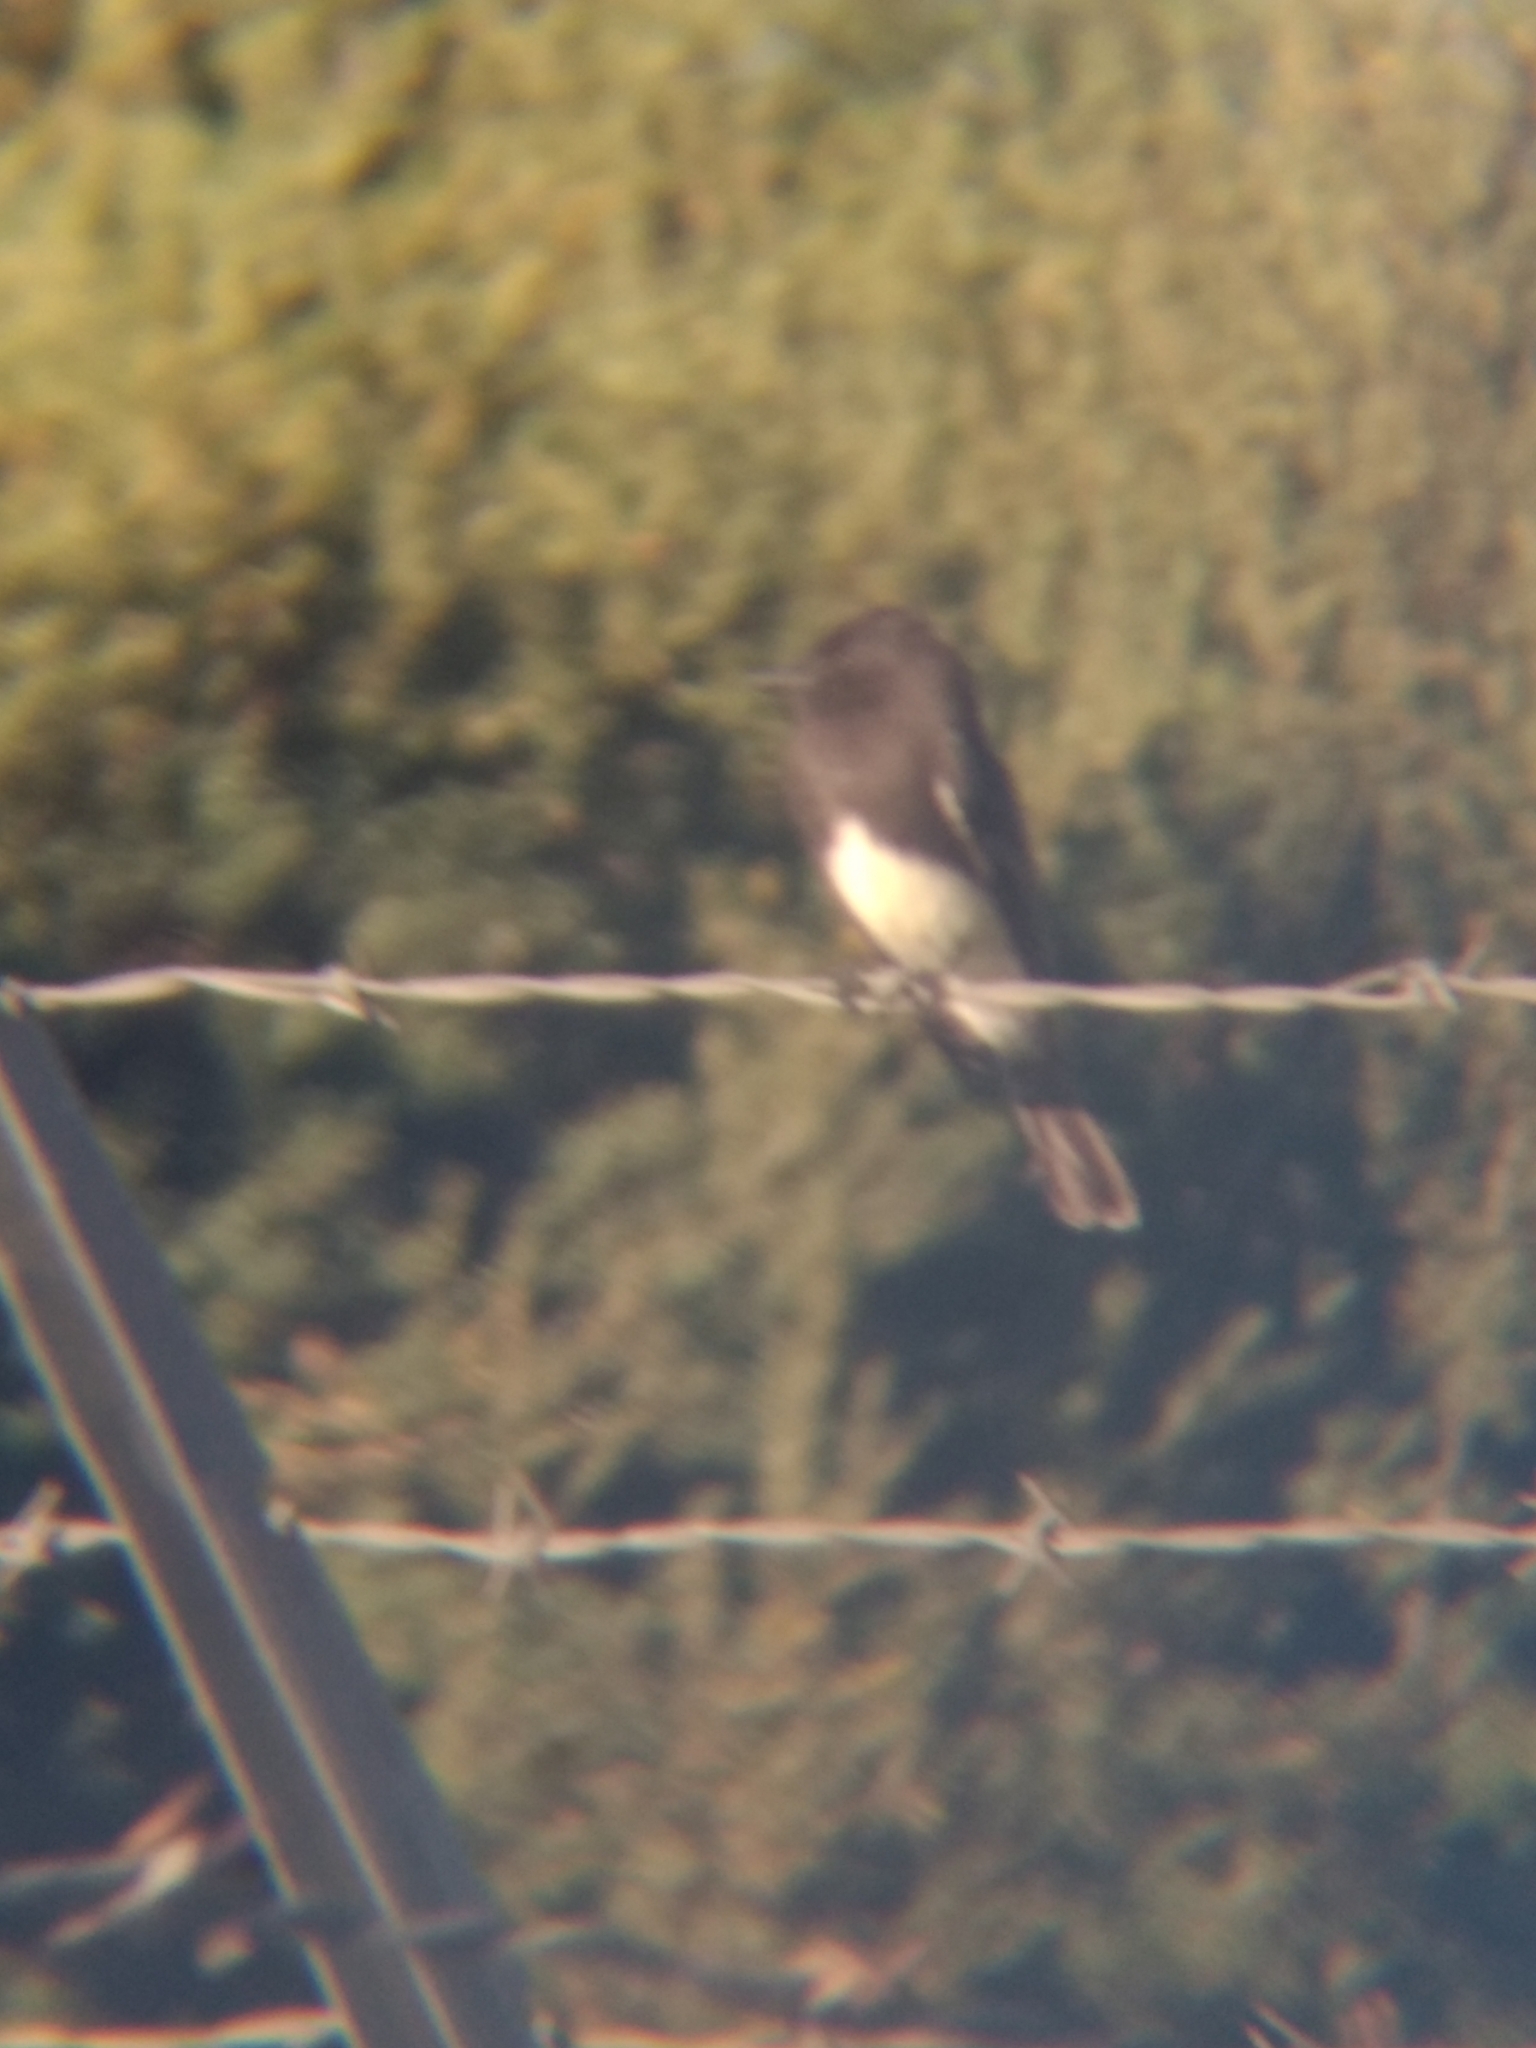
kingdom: Animalia
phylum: Chordata
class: Aves
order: Passeriformes
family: Tyrannidae
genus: Sayornis
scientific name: Sayornis nigricans
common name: Black phoebe
